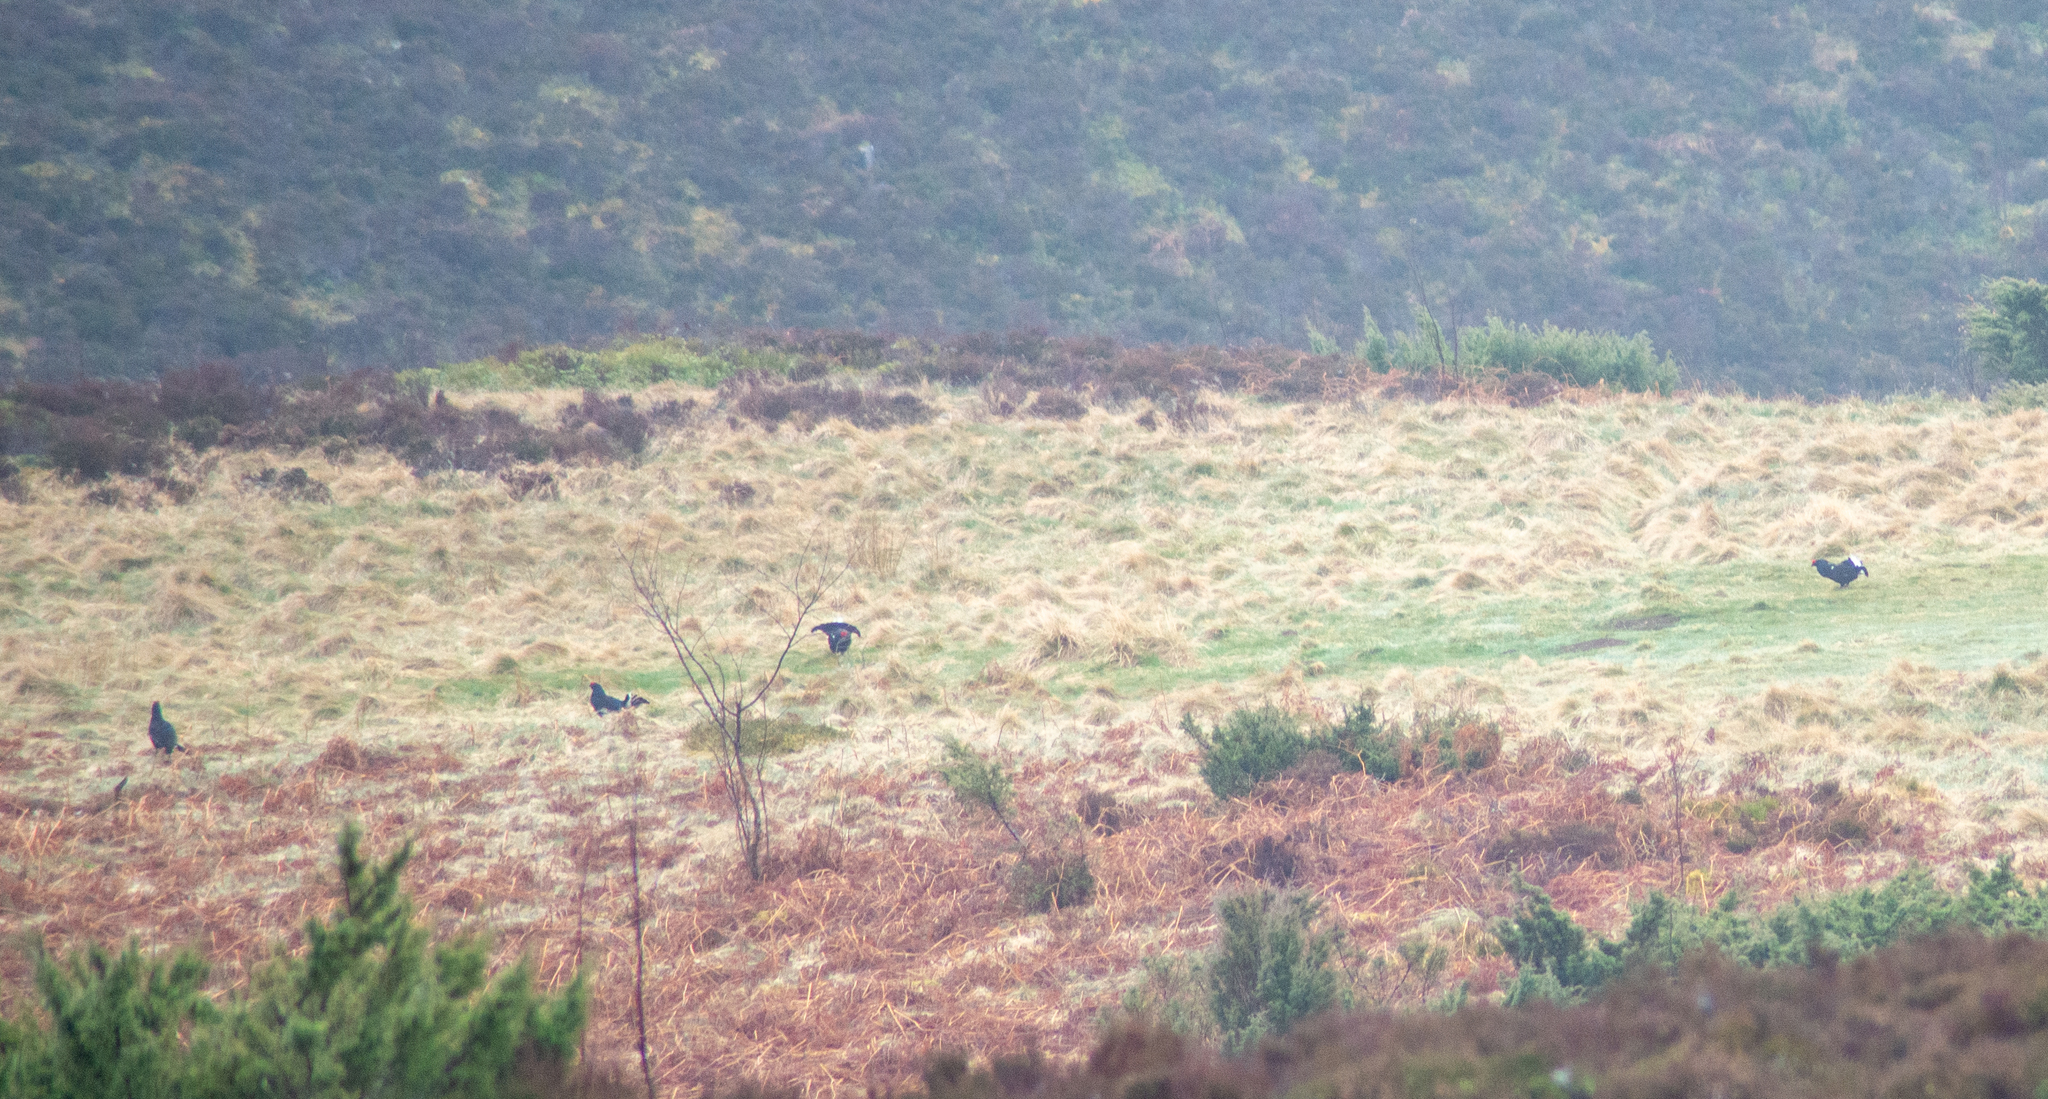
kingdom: Animalia
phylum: Chordata
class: Aves
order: Galliformes
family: Phasianidae
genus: Lyrurus
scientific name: Lyrurus tetrix
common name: Black grouse
